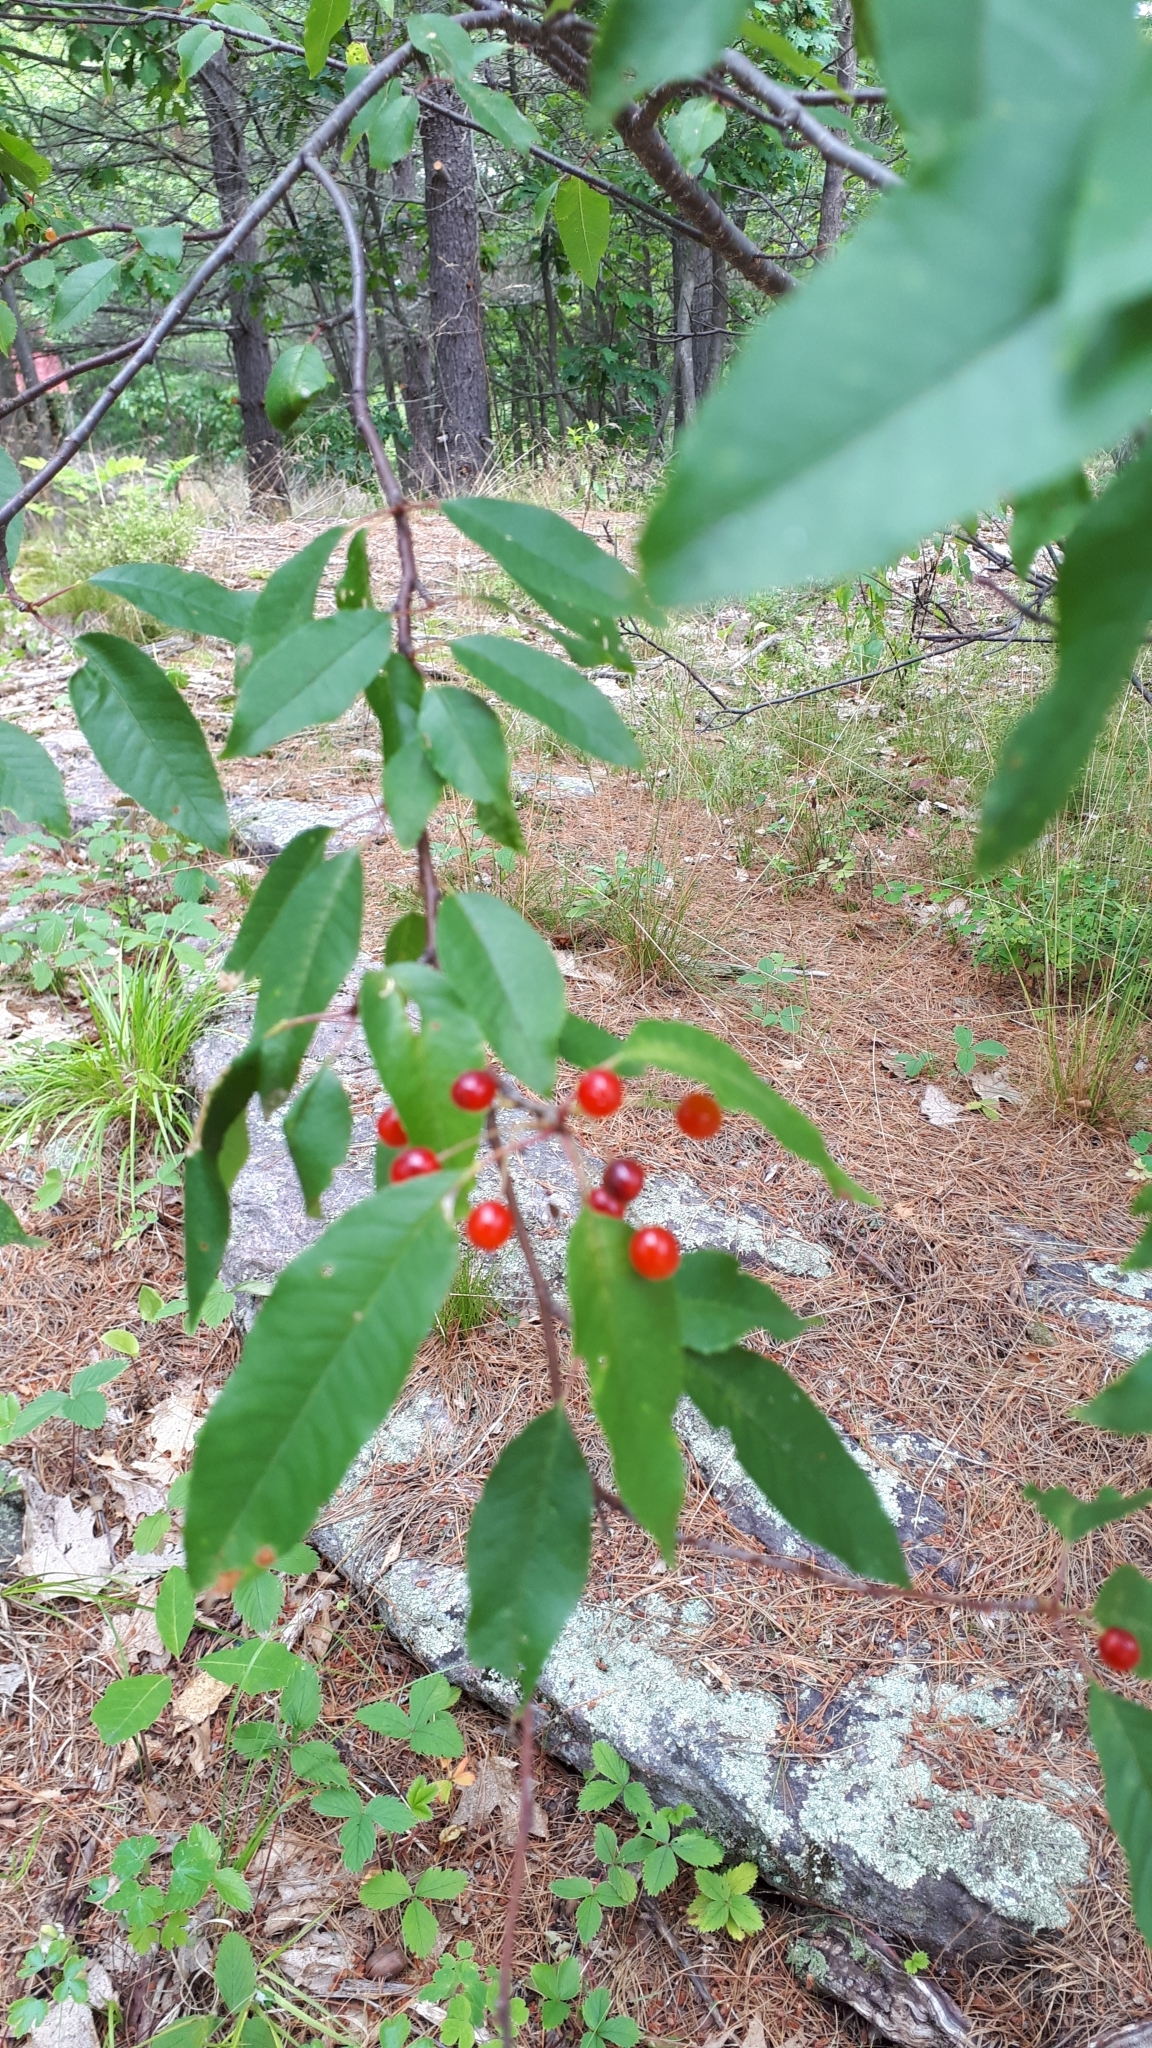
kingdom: Plantae
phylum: Tracheophyta
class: Magnoliopsida
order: Rosales
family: Rosaceae
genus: Prunus
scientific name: Prunus pensylvanica
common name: Pin cherry
